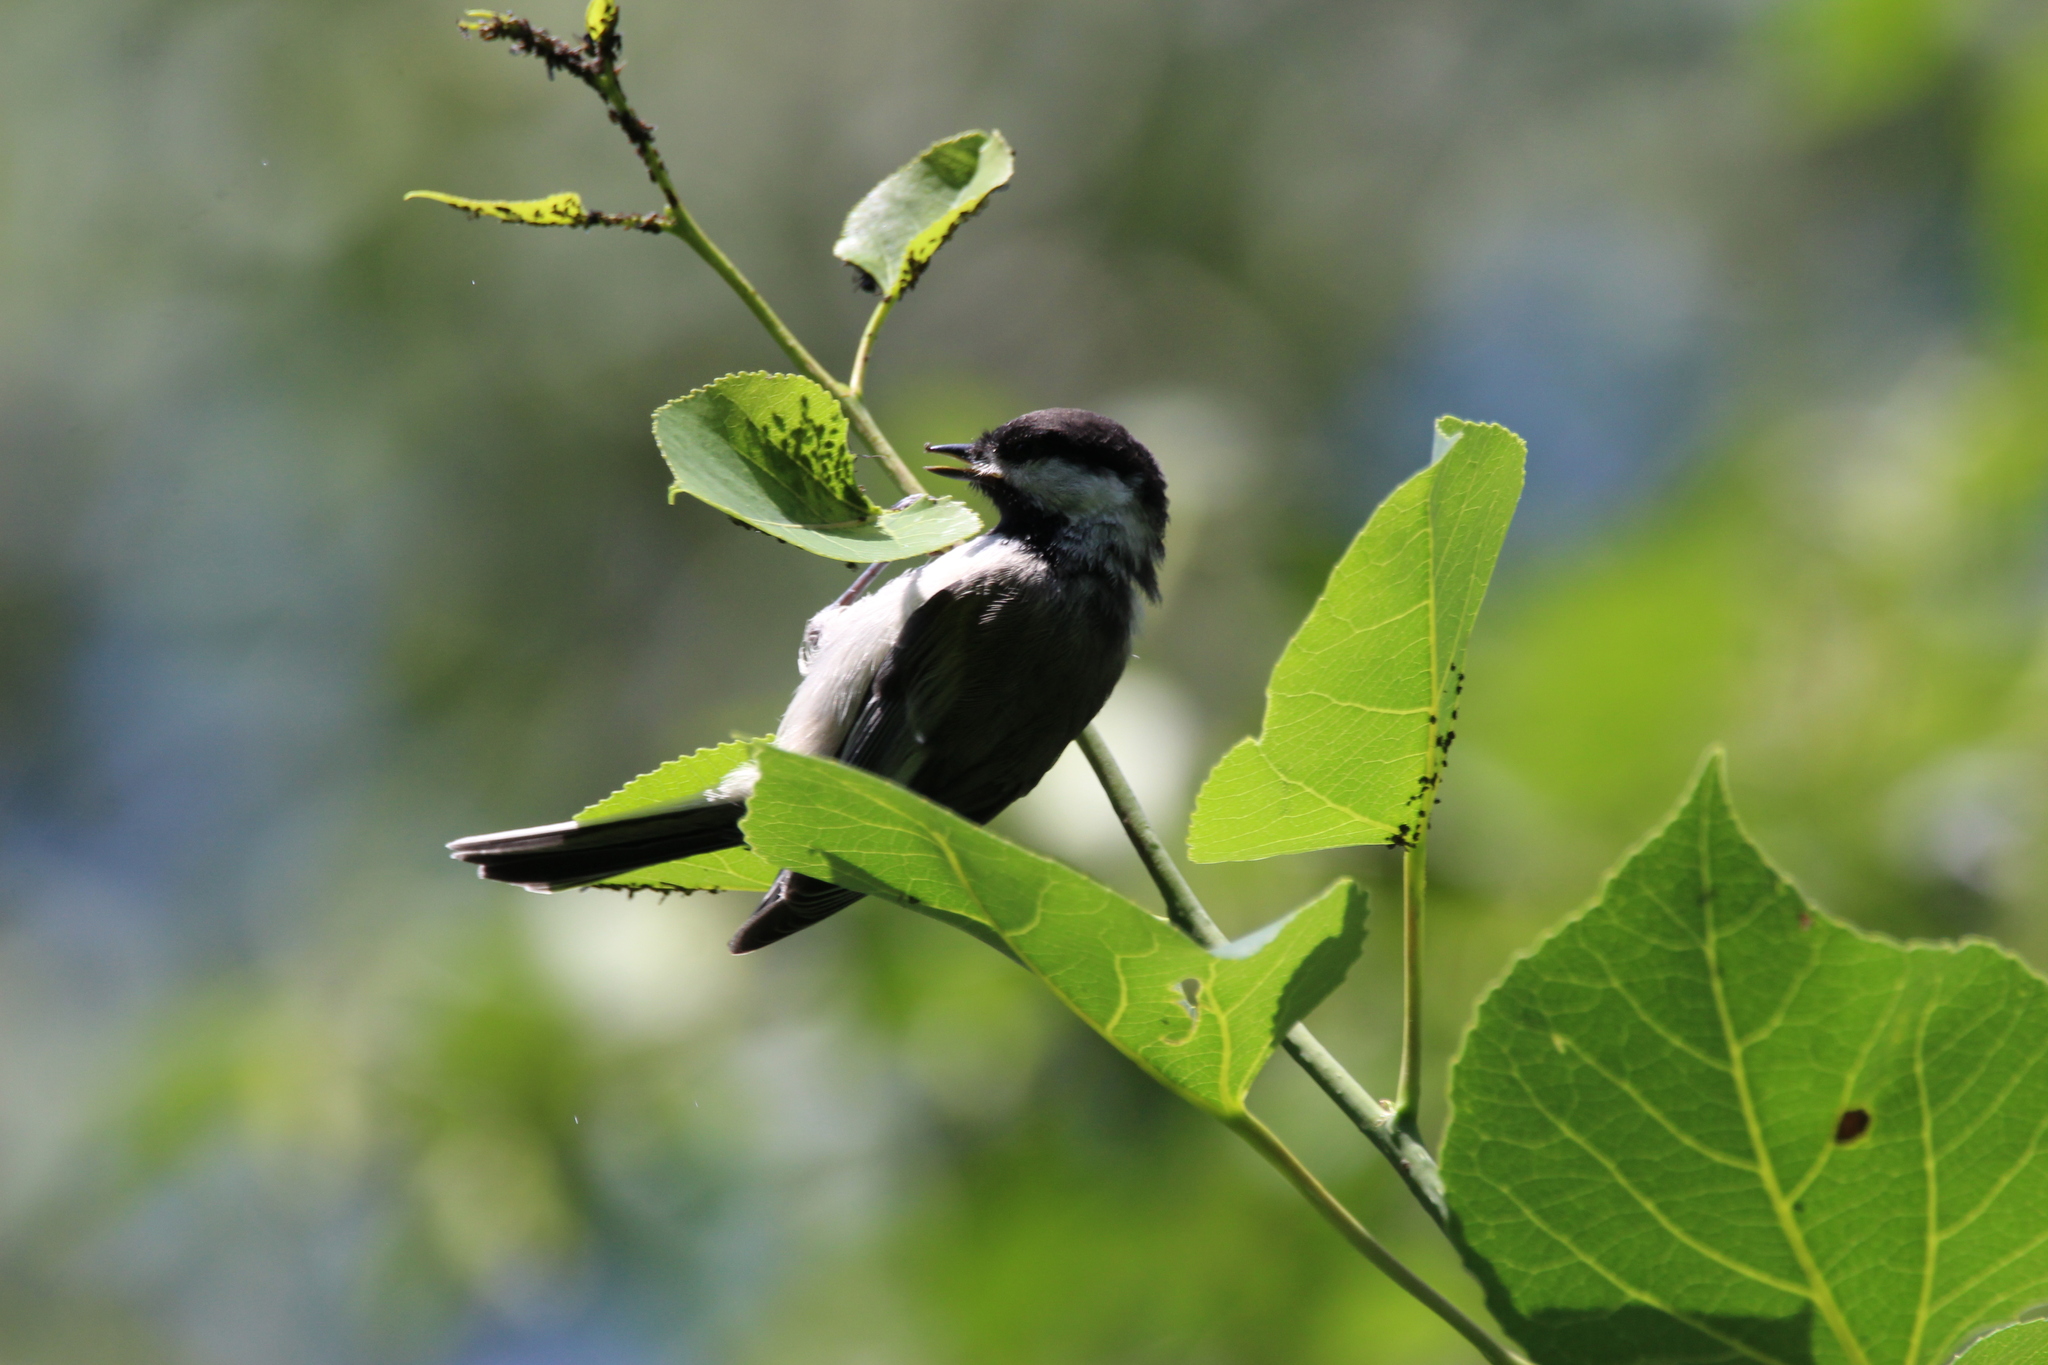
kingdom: Animalia
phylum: Chordata
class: Aves
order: Passeriformes
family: Paridae
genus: Poecile
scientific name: Poecile atricapillus
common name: Black-capped chickadee
